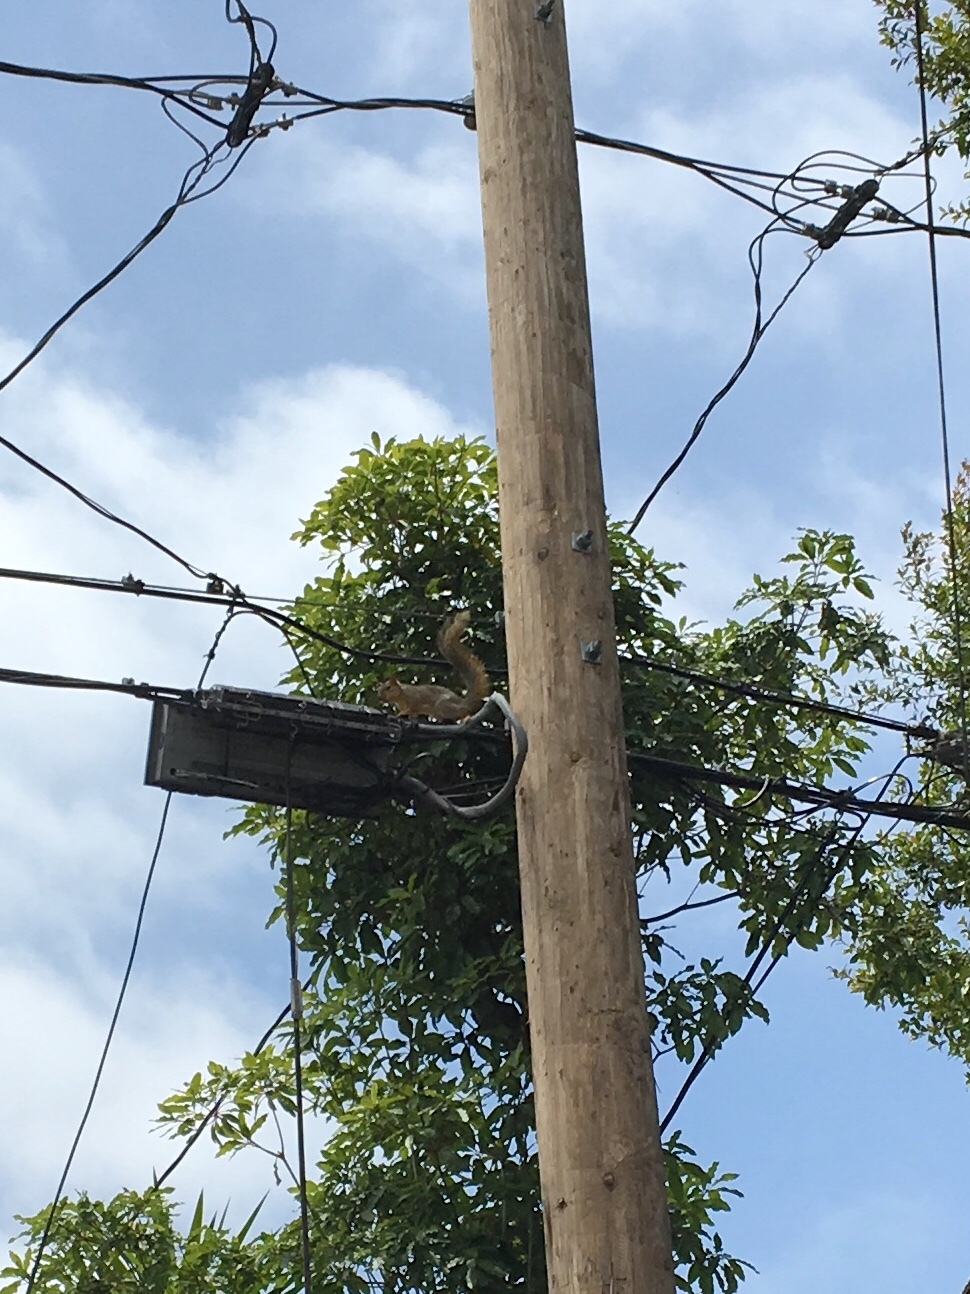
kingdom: Animalia
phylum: Chordata
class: Mammalia
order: Rodentia
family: Sciuridae
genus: Sciurus
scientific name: Sciurus niger
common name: Fox squirrel
